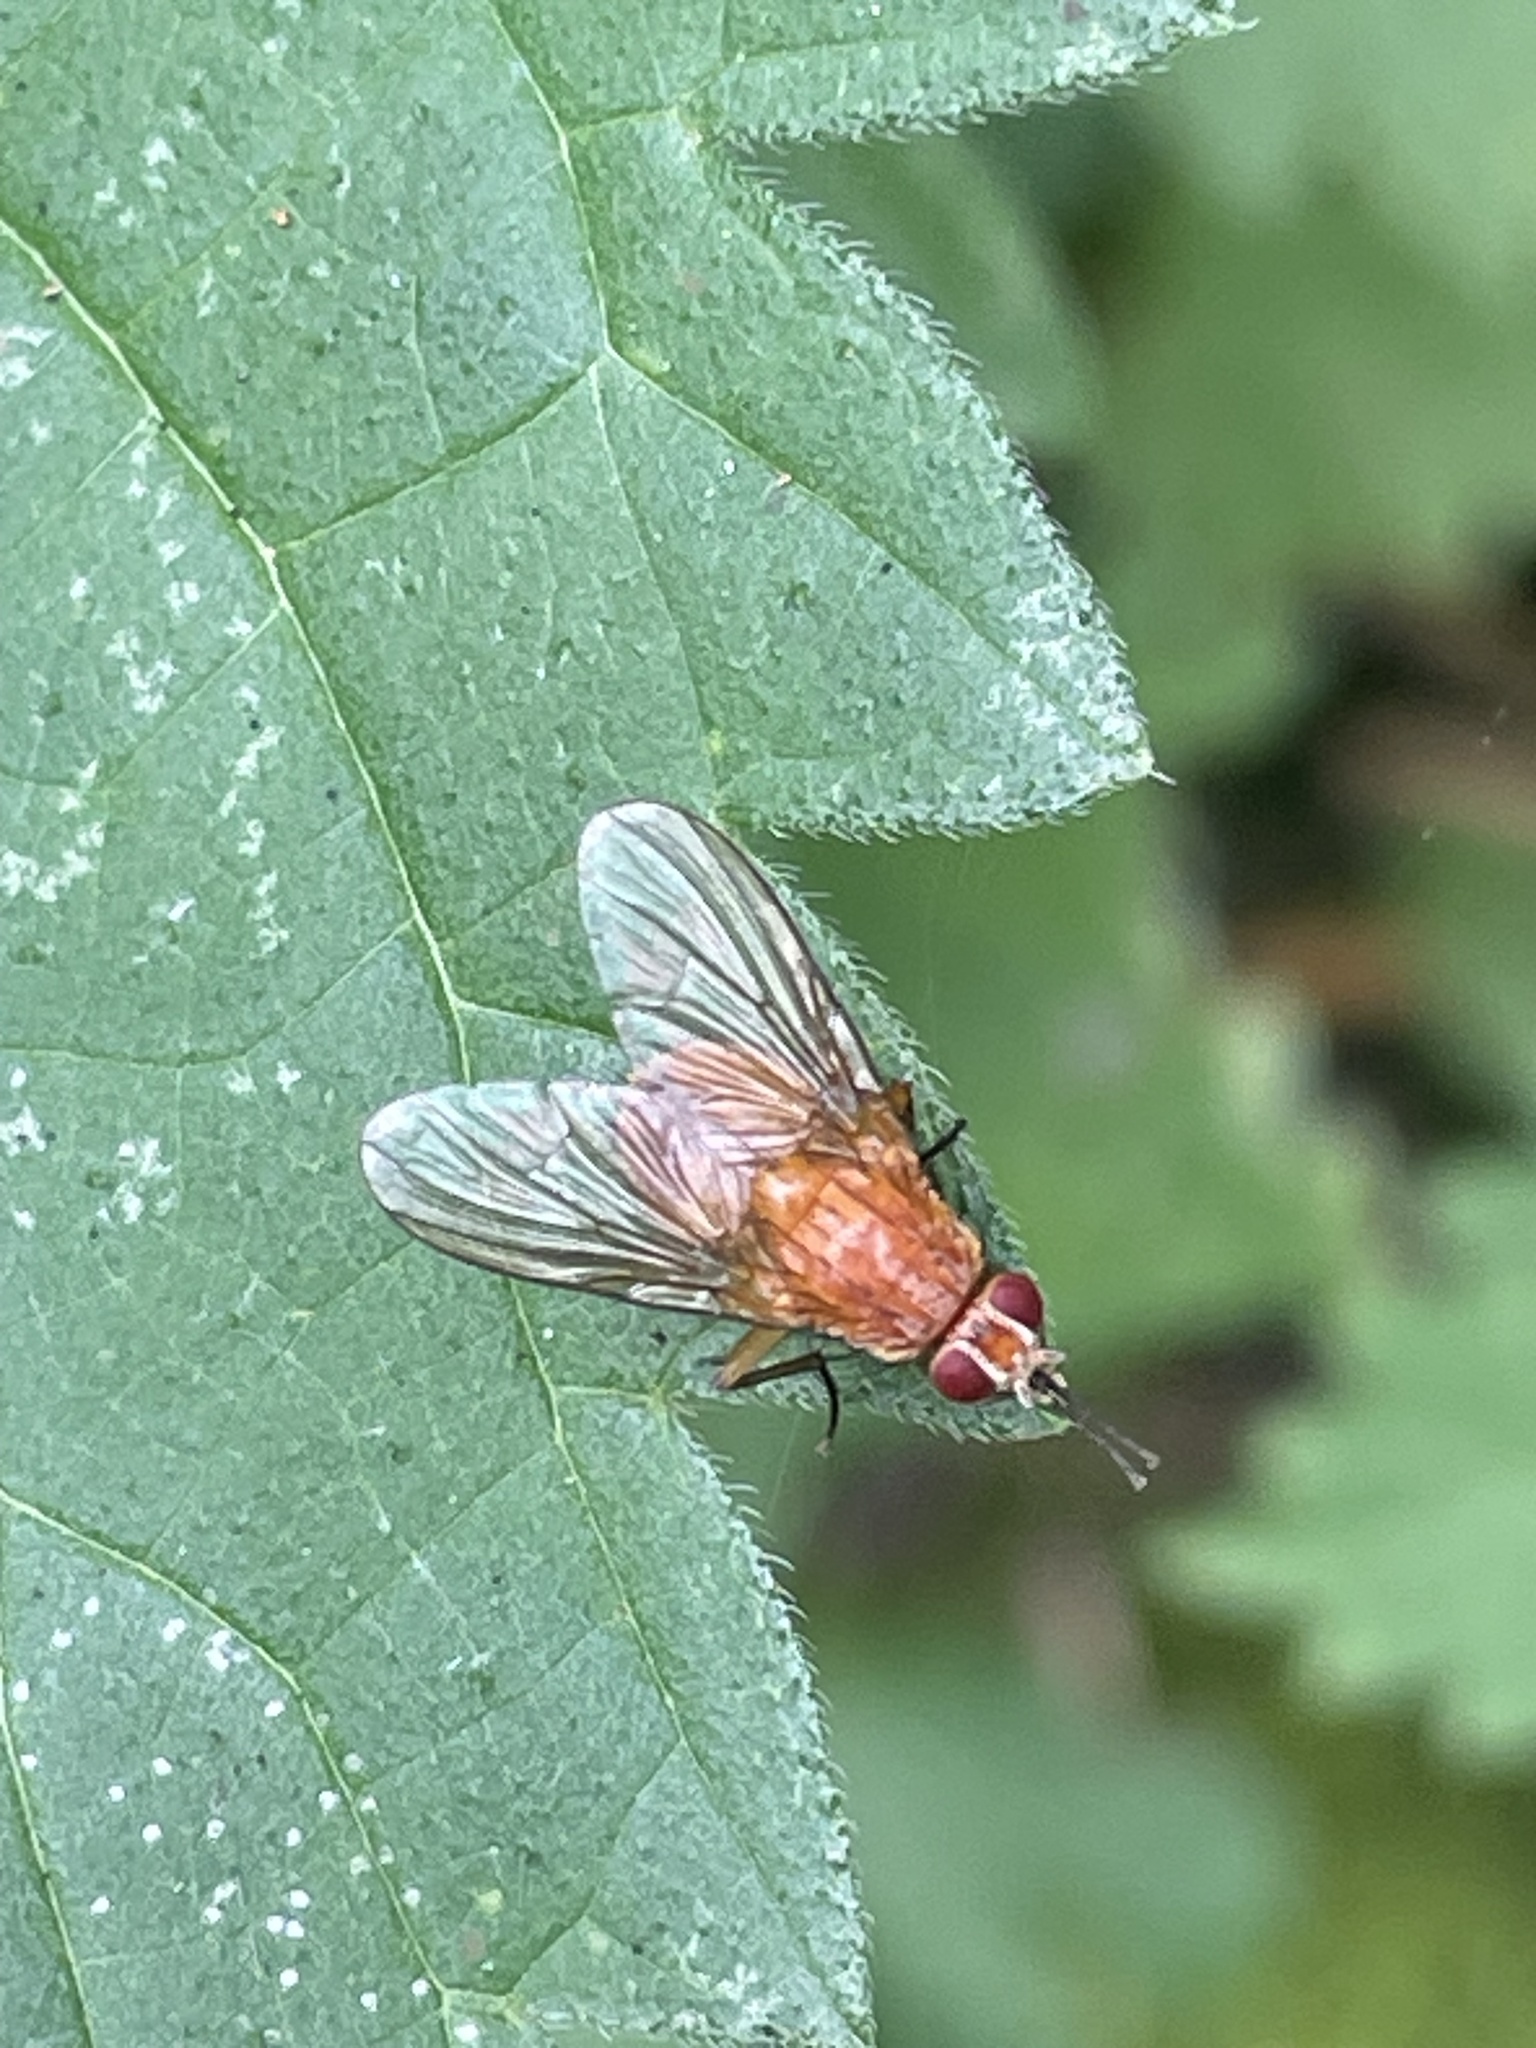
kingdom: Animalia
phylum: Arthropoda
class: Insecta
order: Diptera
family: Muscidae
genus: Phaonia
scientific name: Phaonia pallida
